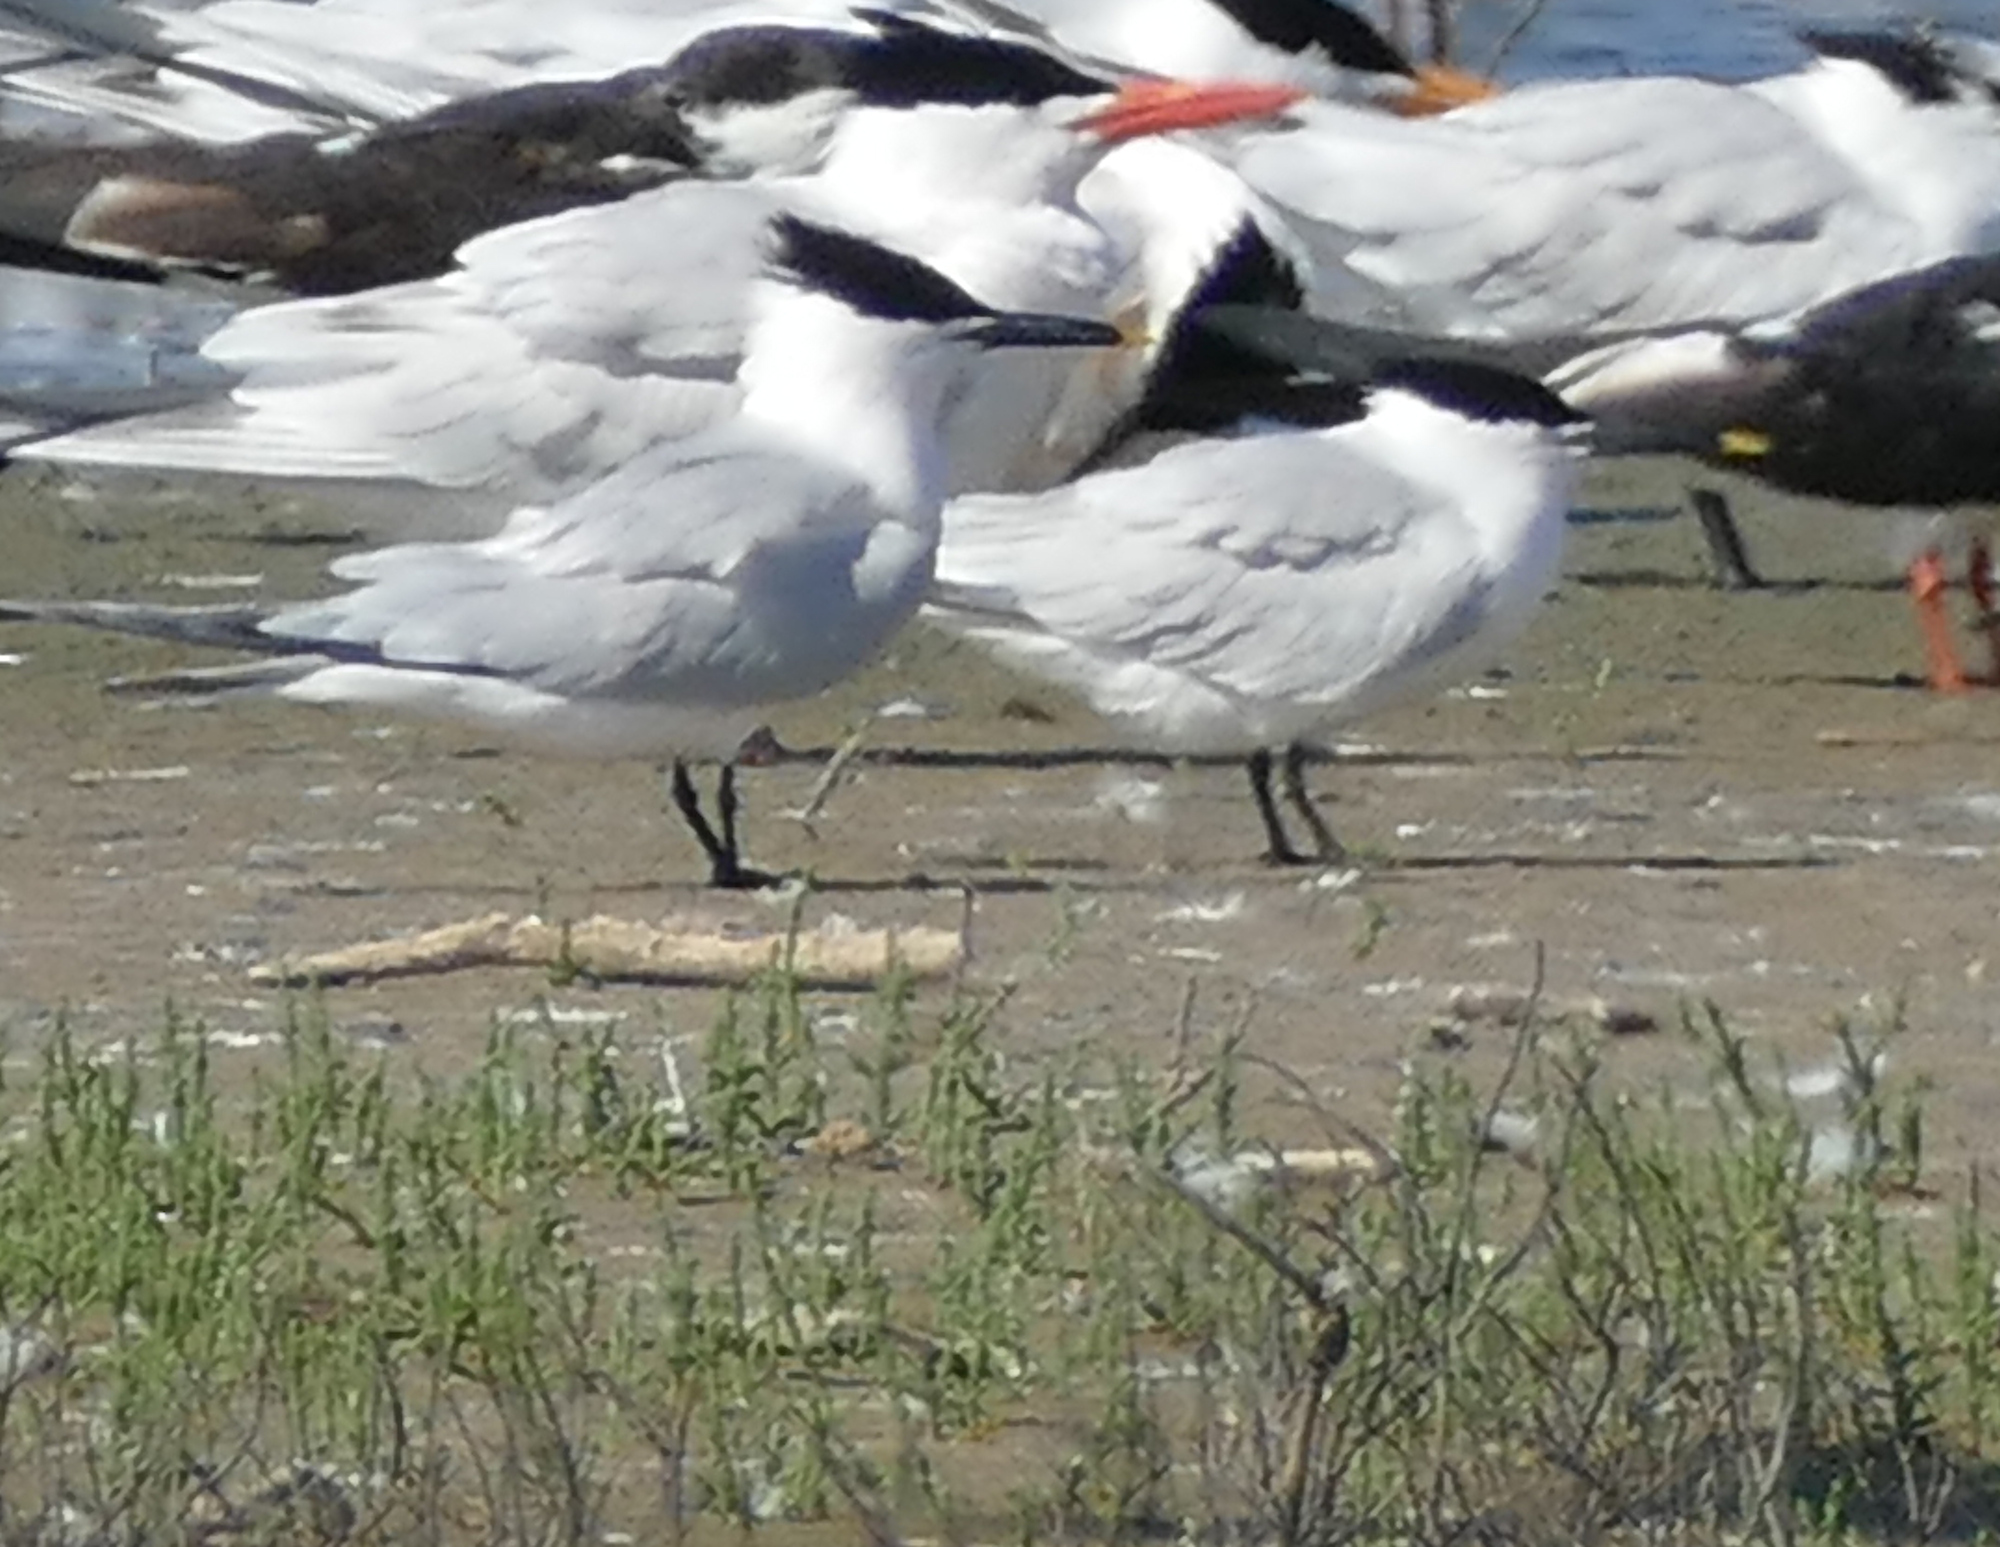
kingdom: Animalia
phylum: Chordata
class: Aves
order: Charadriiformes
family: Laridae
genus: Thalasseus
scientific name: Thalasseus sandvicensis
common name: Sandwich tern
